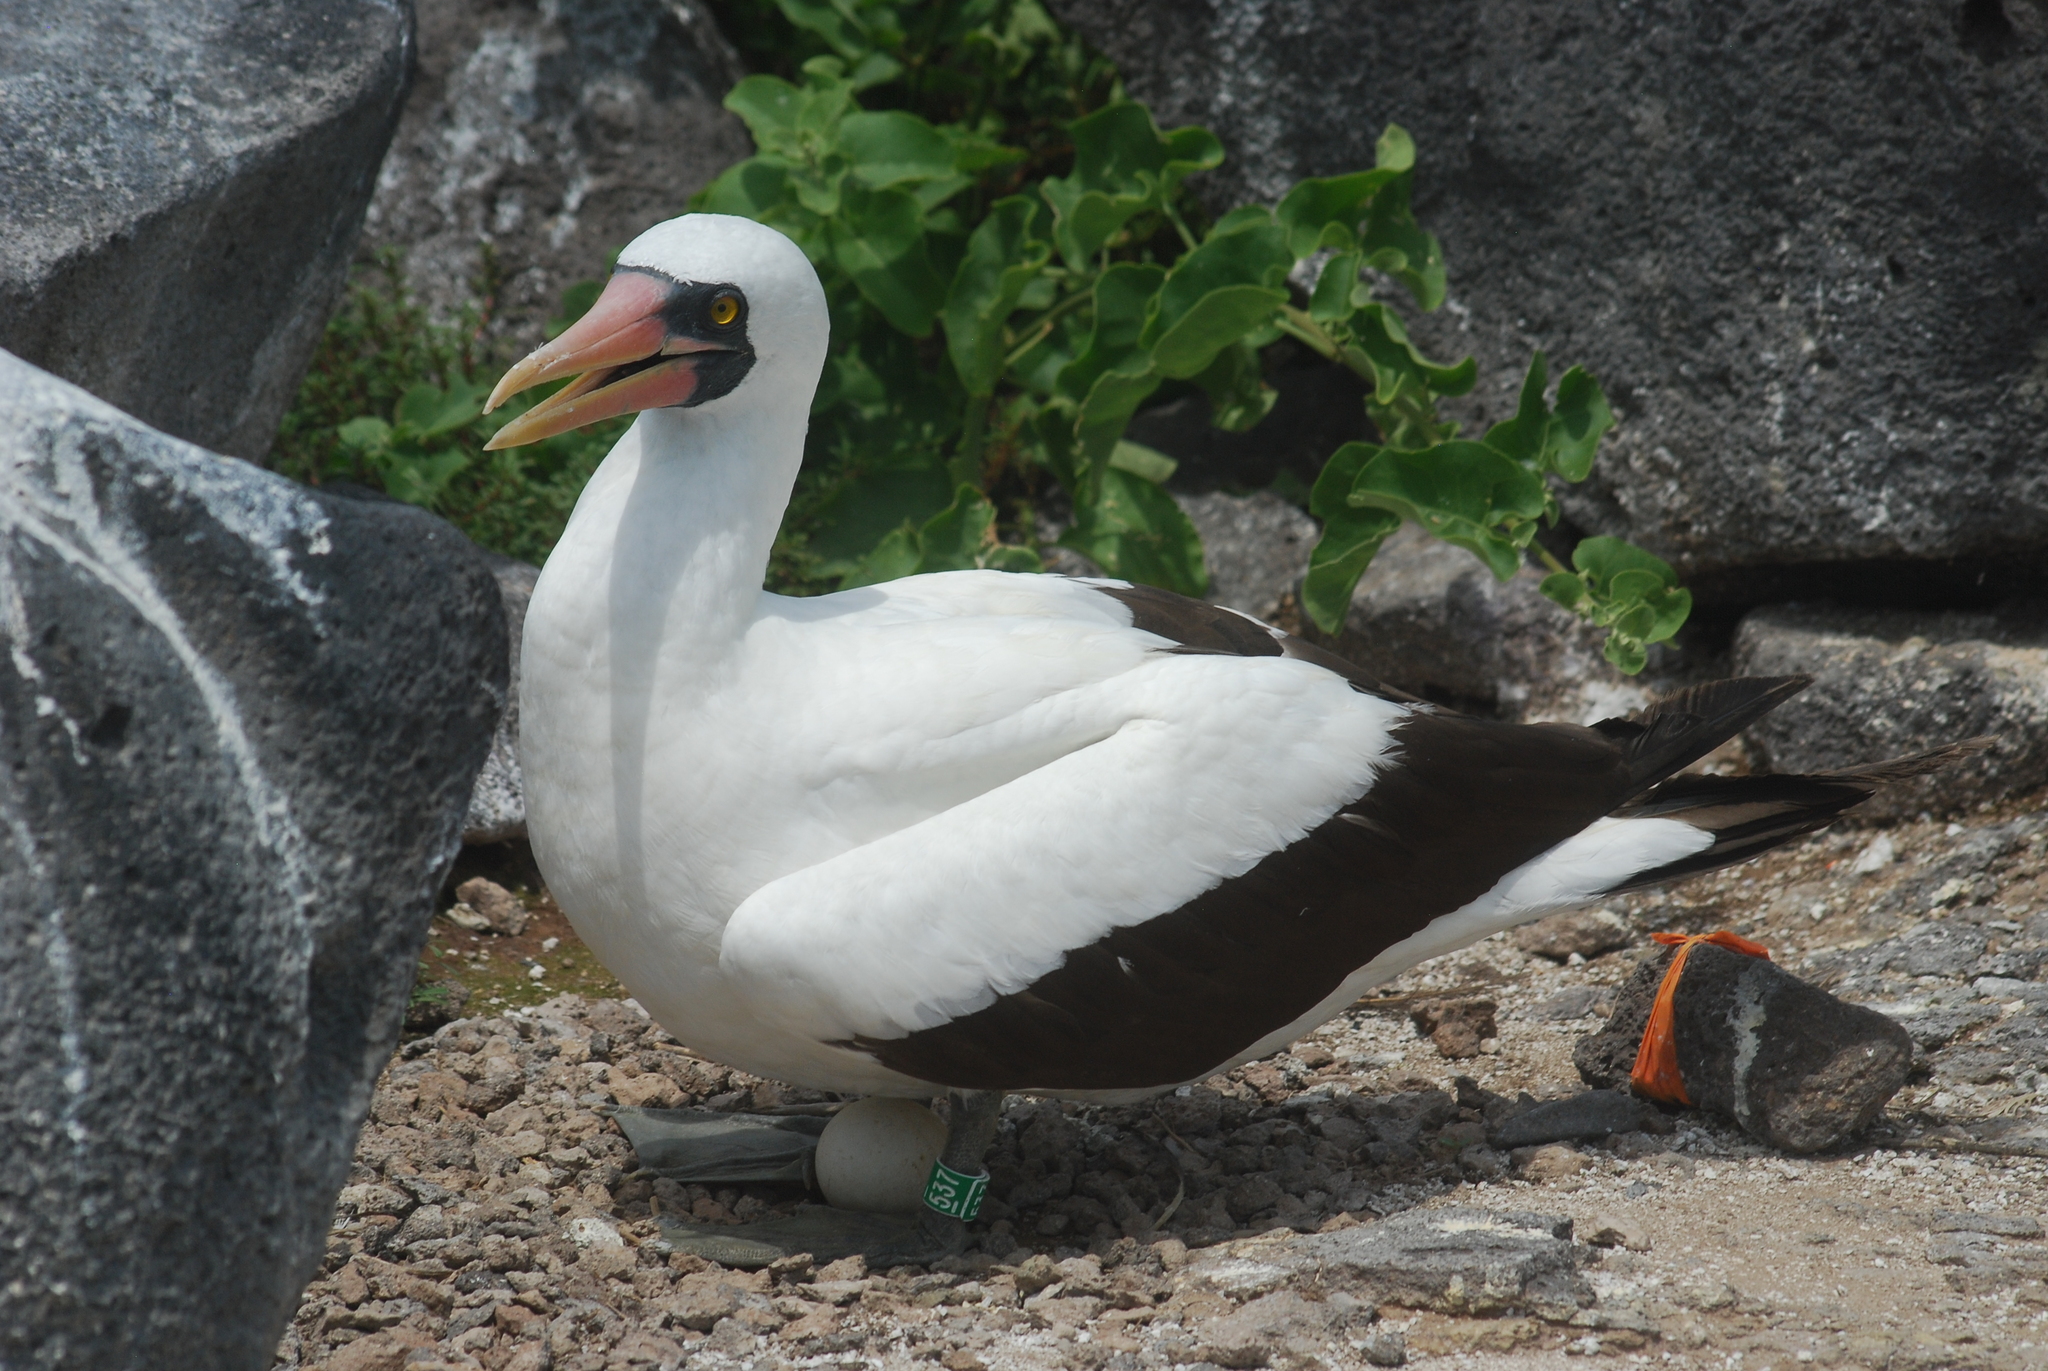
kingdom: Animalia
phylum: Chordata
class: Aves
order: Suliformes
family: Sulidae
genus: Sula
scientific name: Sula granti
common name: Nazca booby
